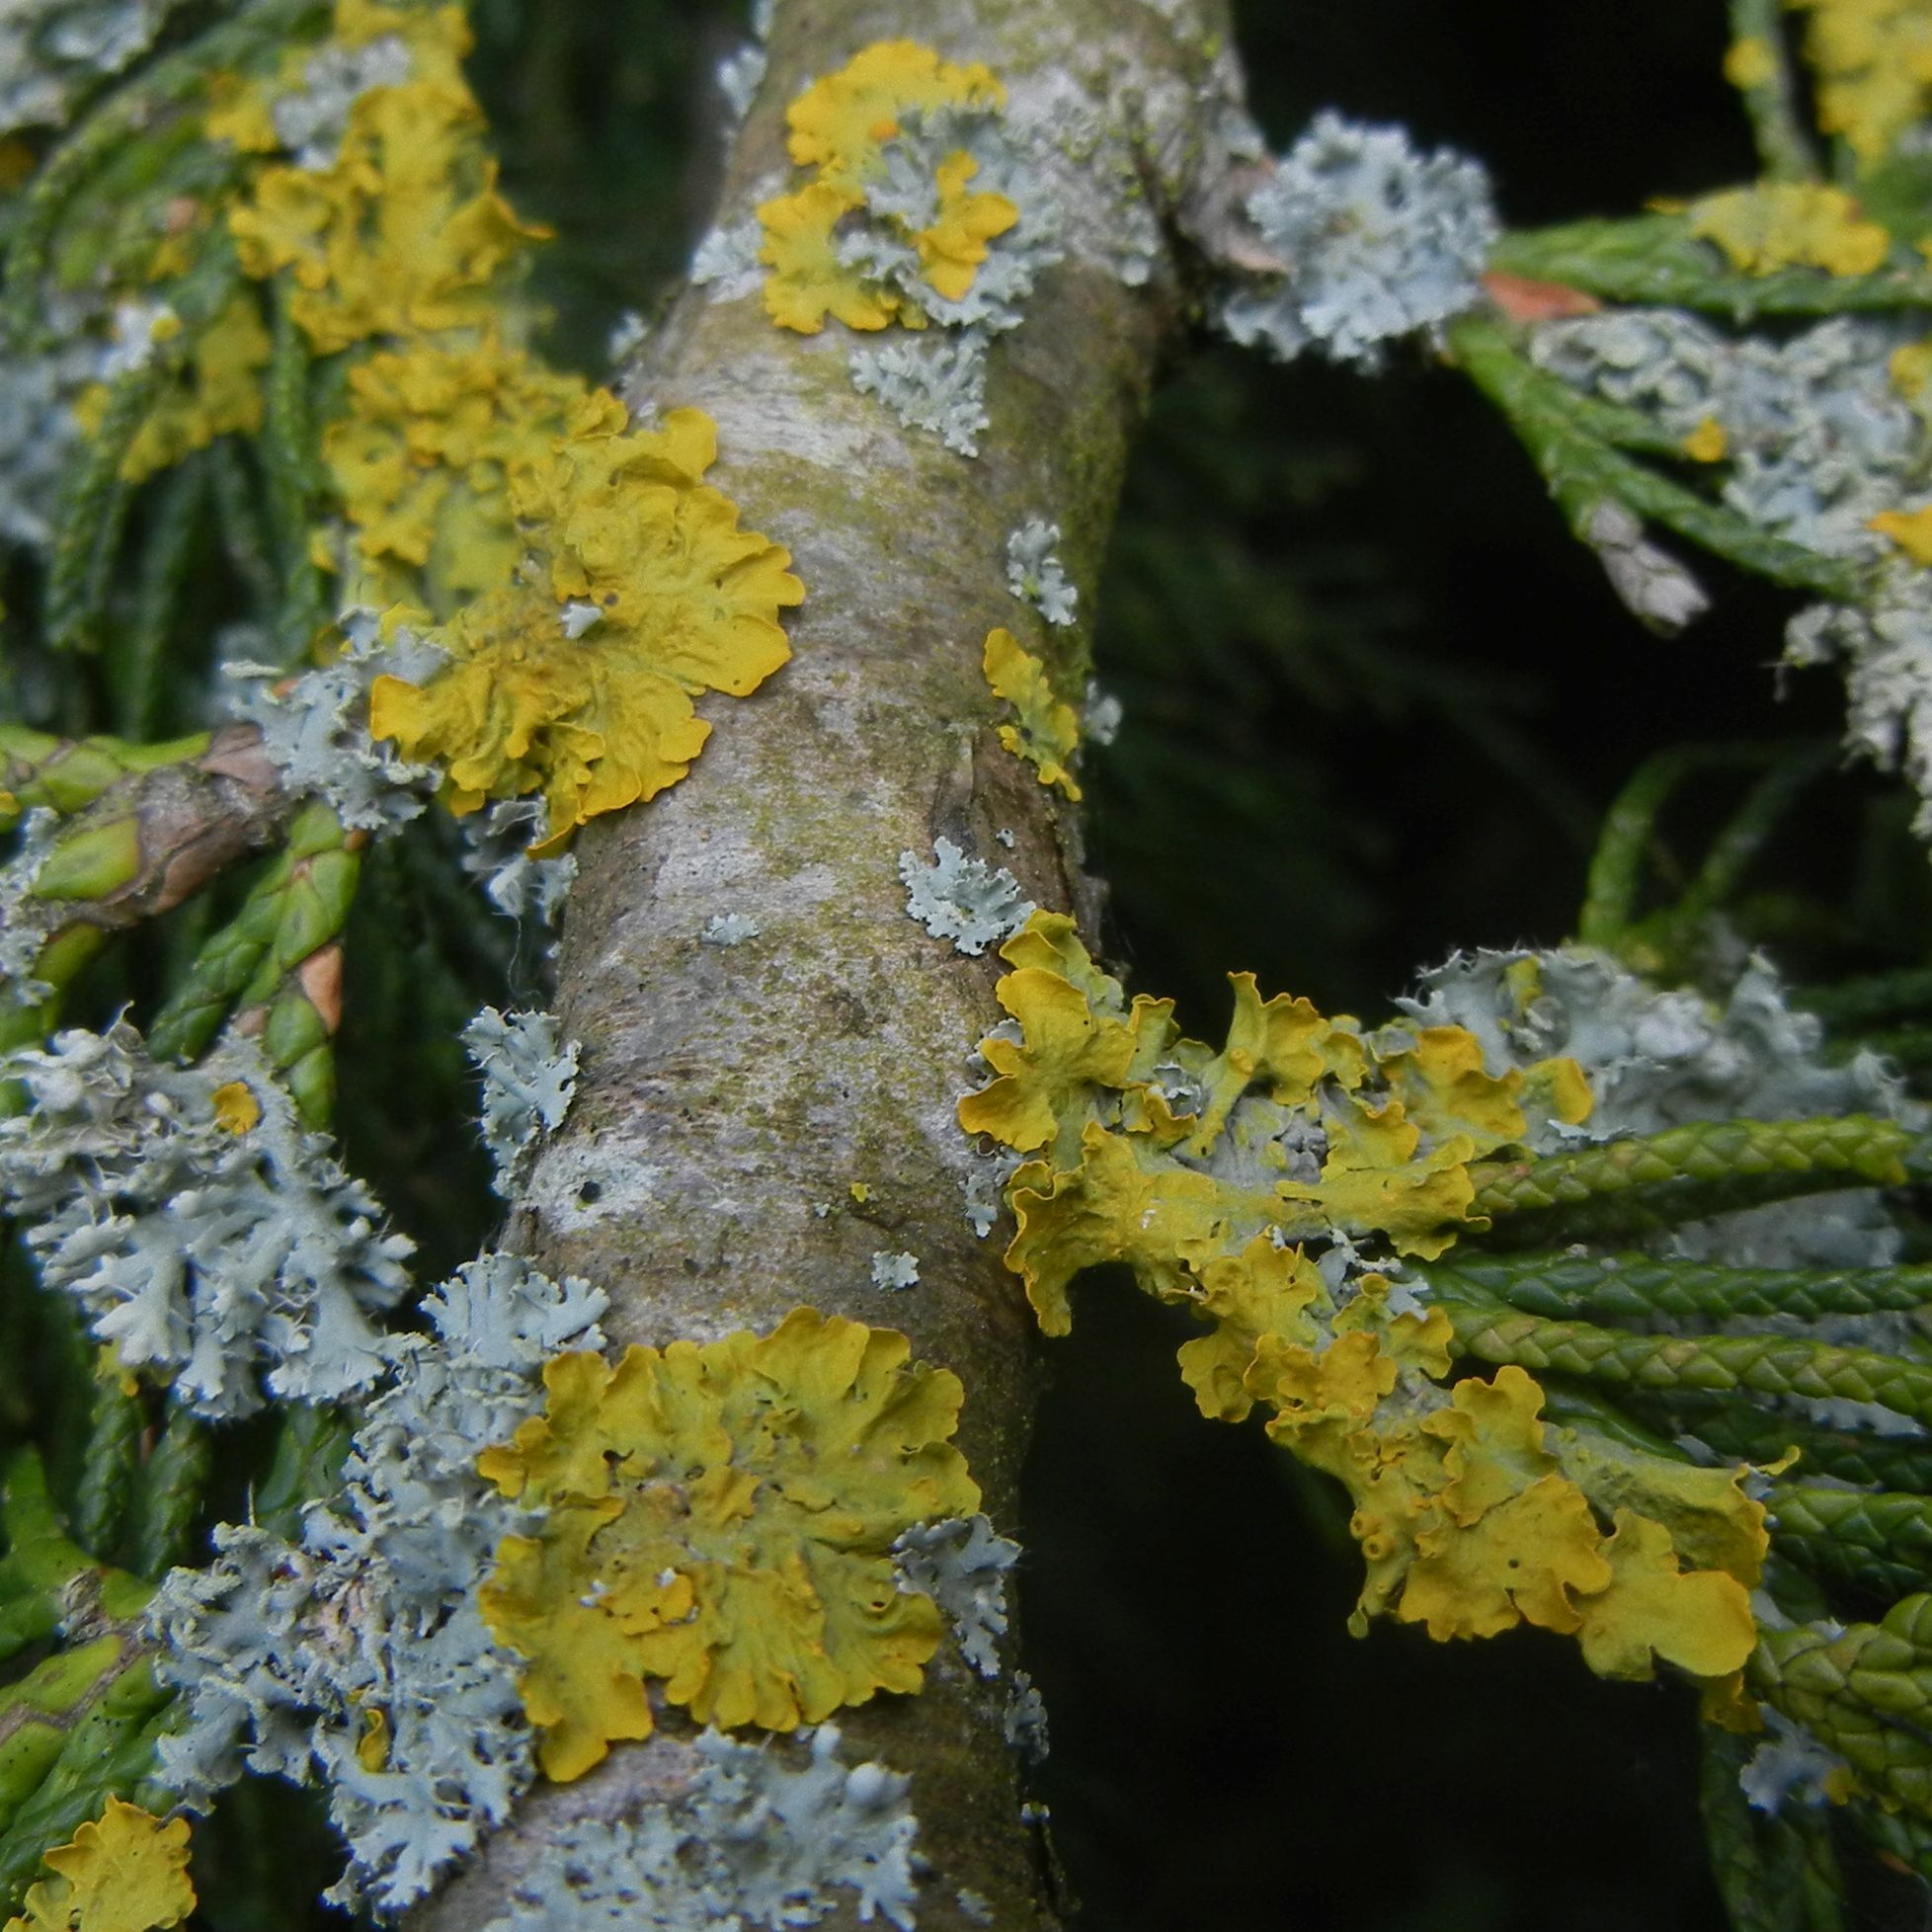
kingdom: Fungi
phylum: Ascomycota
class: Lecanoromycetes
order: Teloschistales
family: Teloschistaceae
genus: Xanthoria
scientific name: Xanthoria parietina
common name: Common orange lichen
